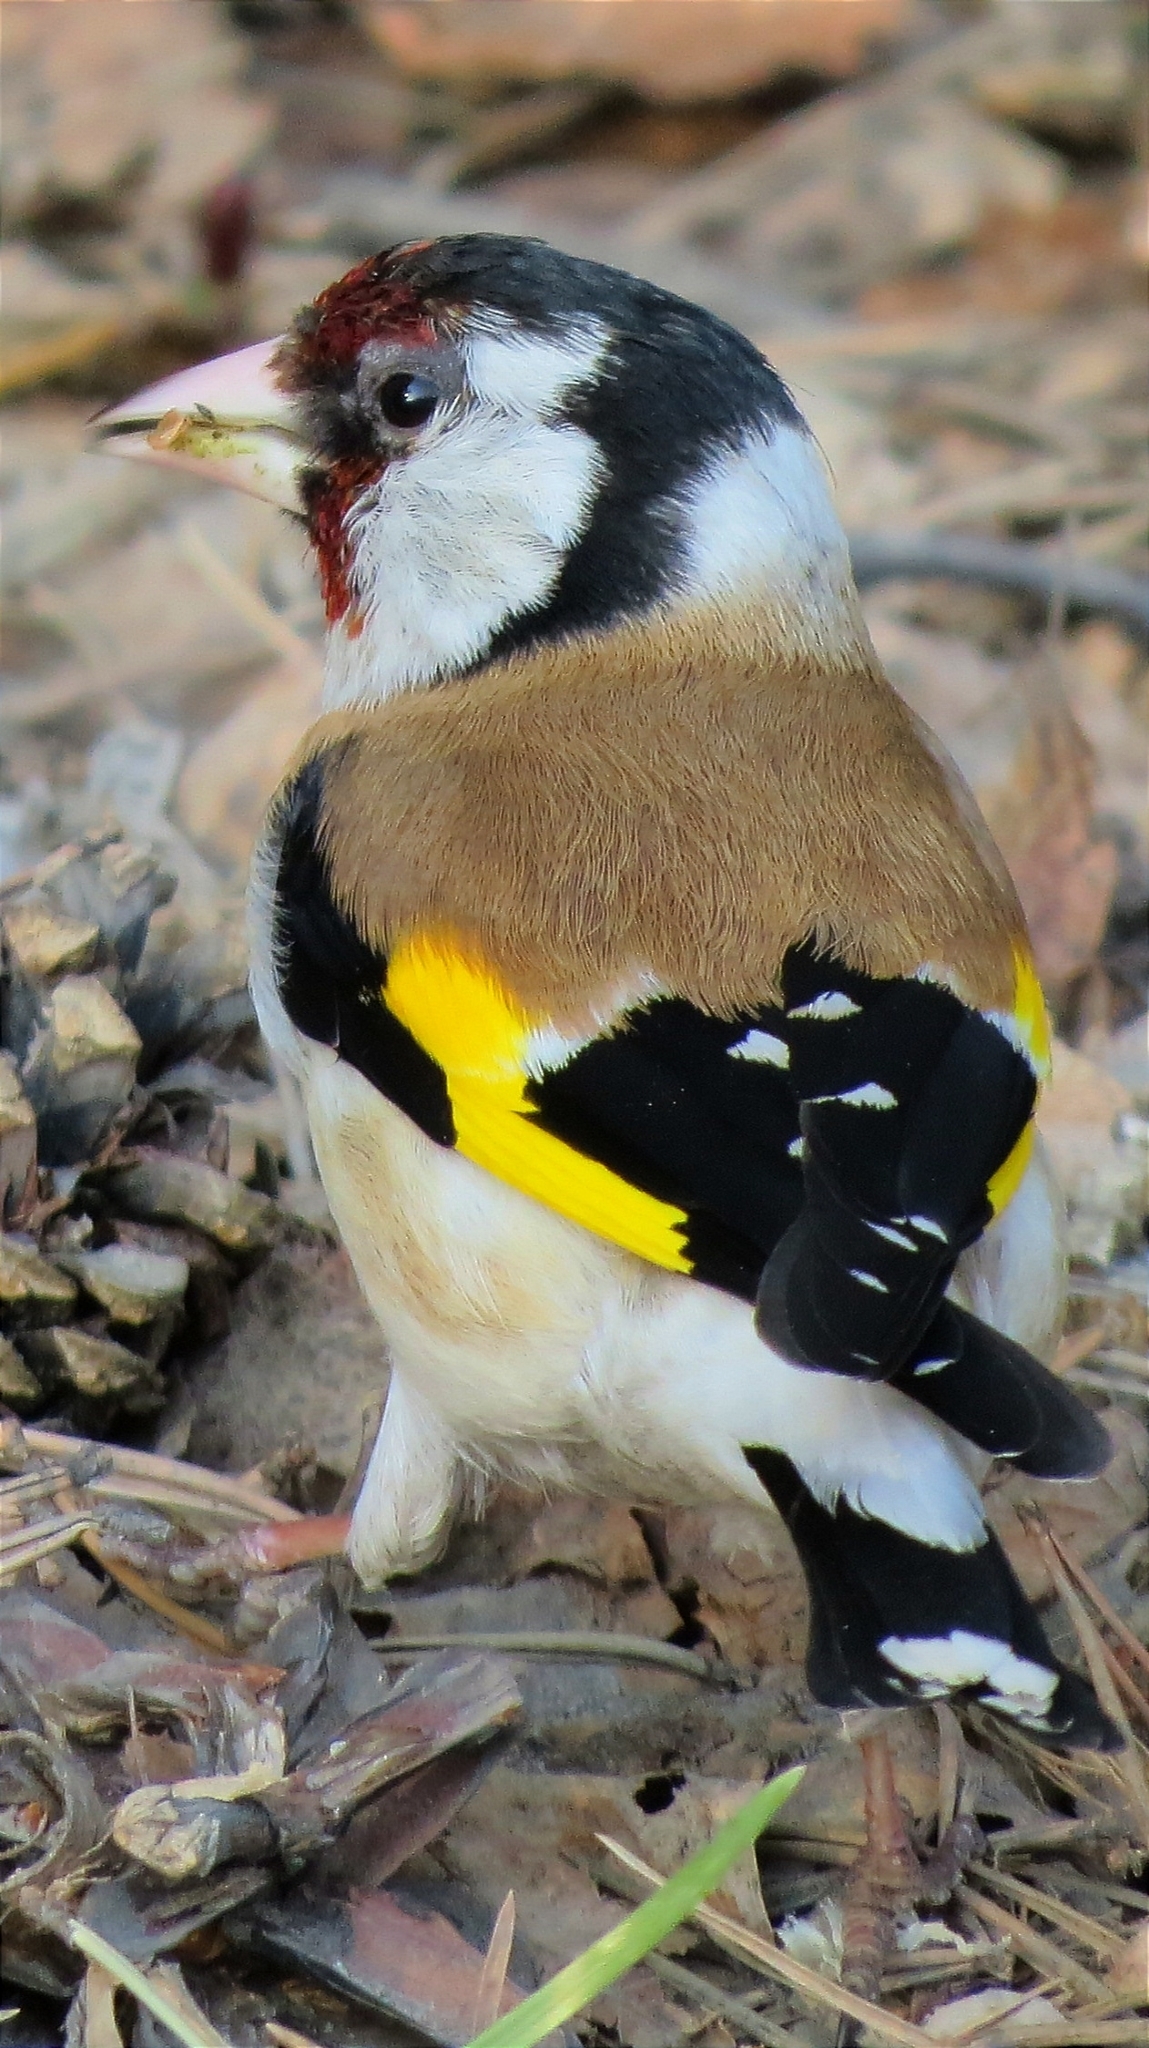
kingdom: Animalia
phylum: Chordata
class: Aves
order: Passeriformes
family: Fringillidae
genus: Carduelis
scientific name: Carduelis carduelis
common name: European goldfinch
